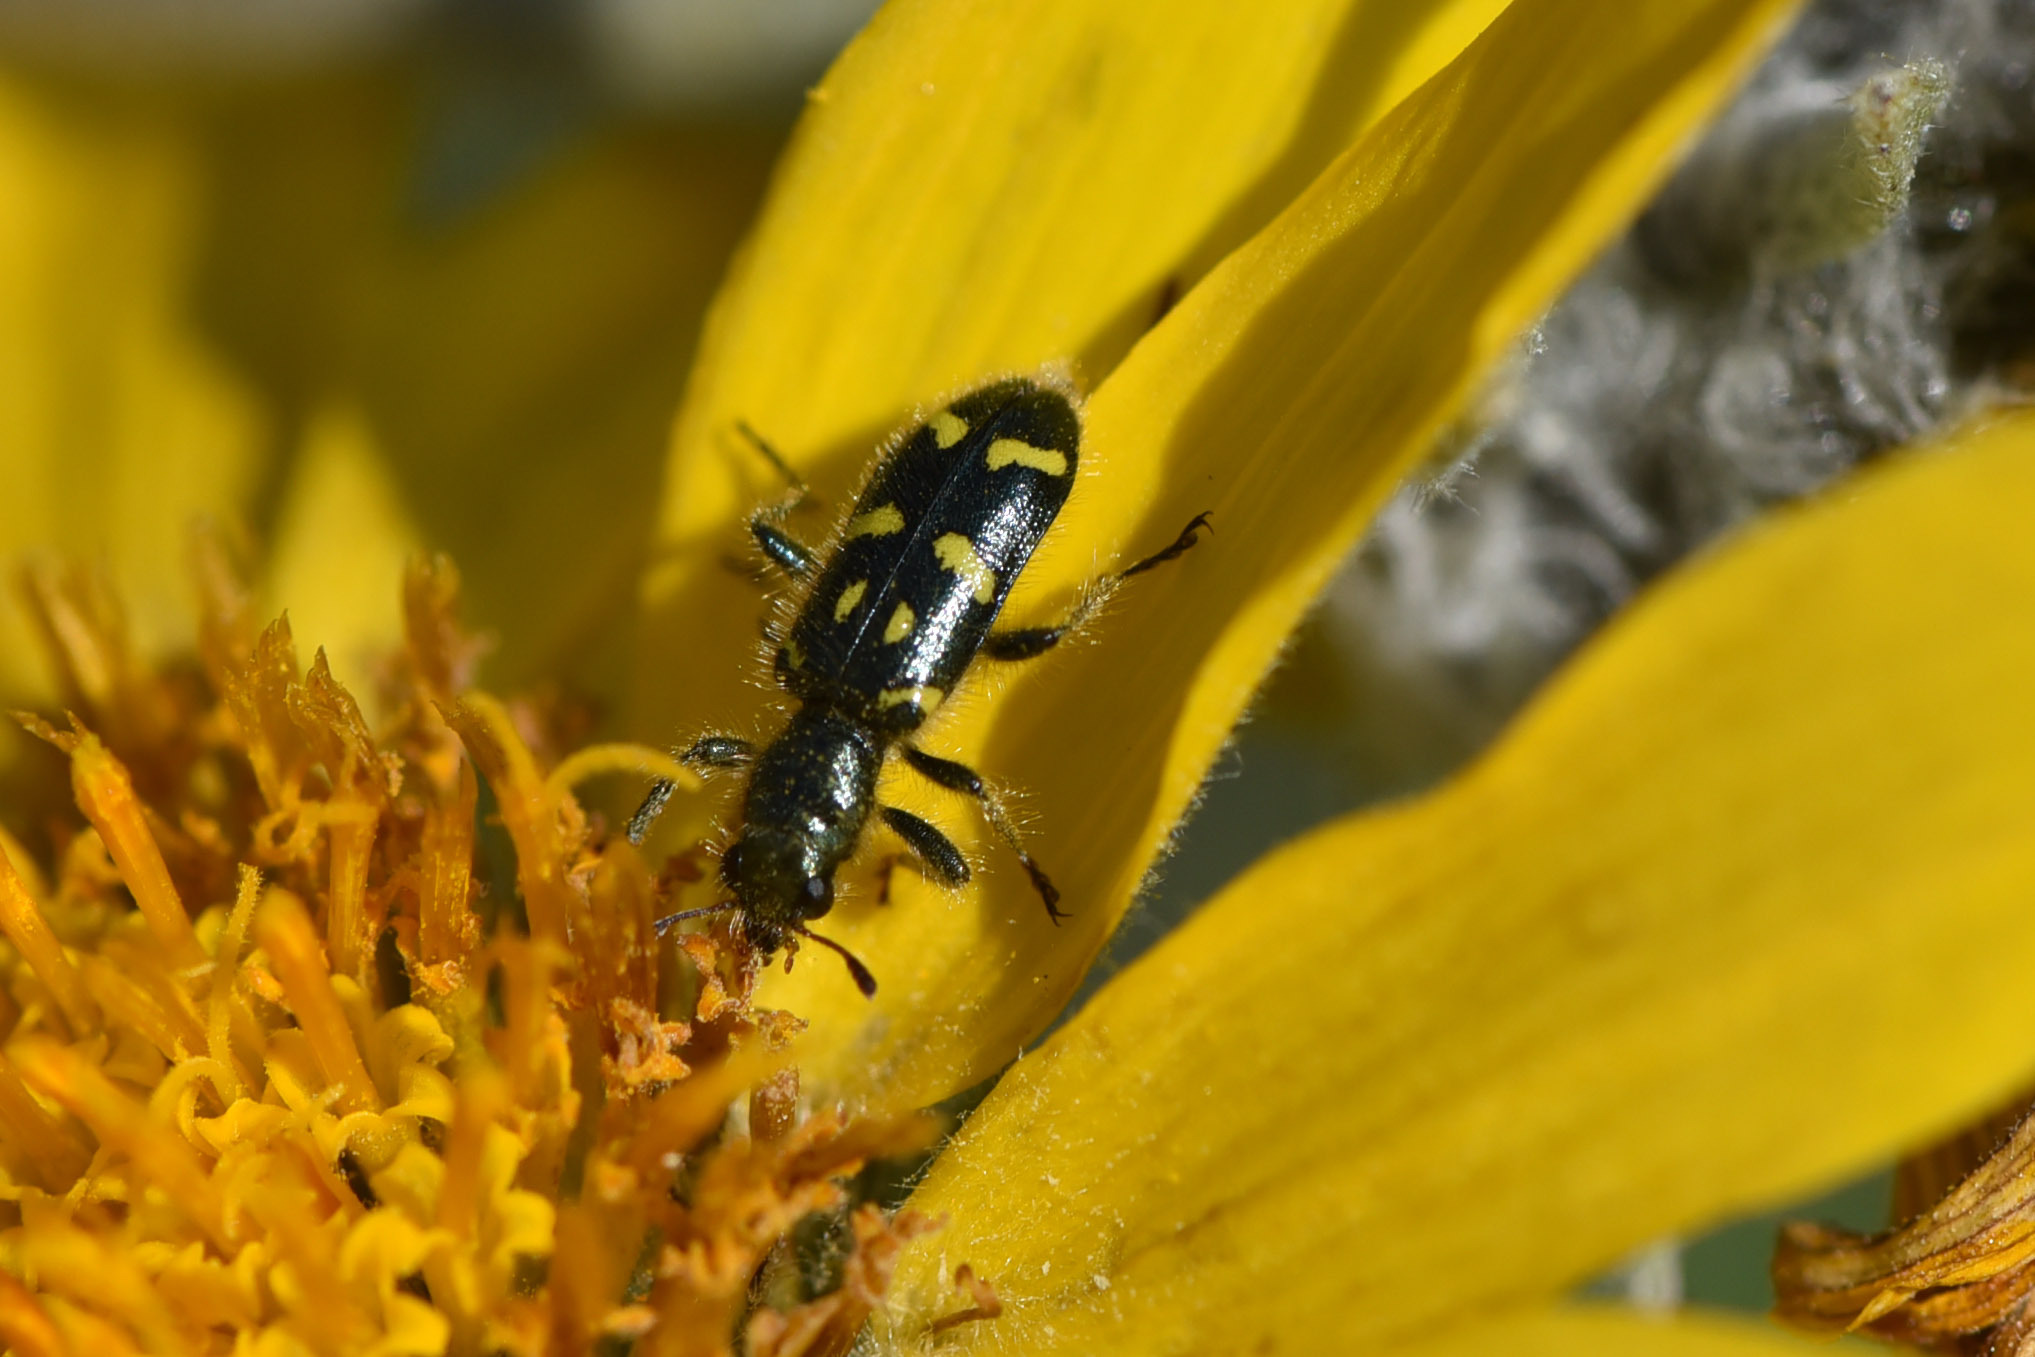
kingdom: Animalia
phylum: Arthropoda
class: Insecta
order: Coleoptera
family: Cleridae
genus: Trichodes
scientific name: Trichodes ornatus
